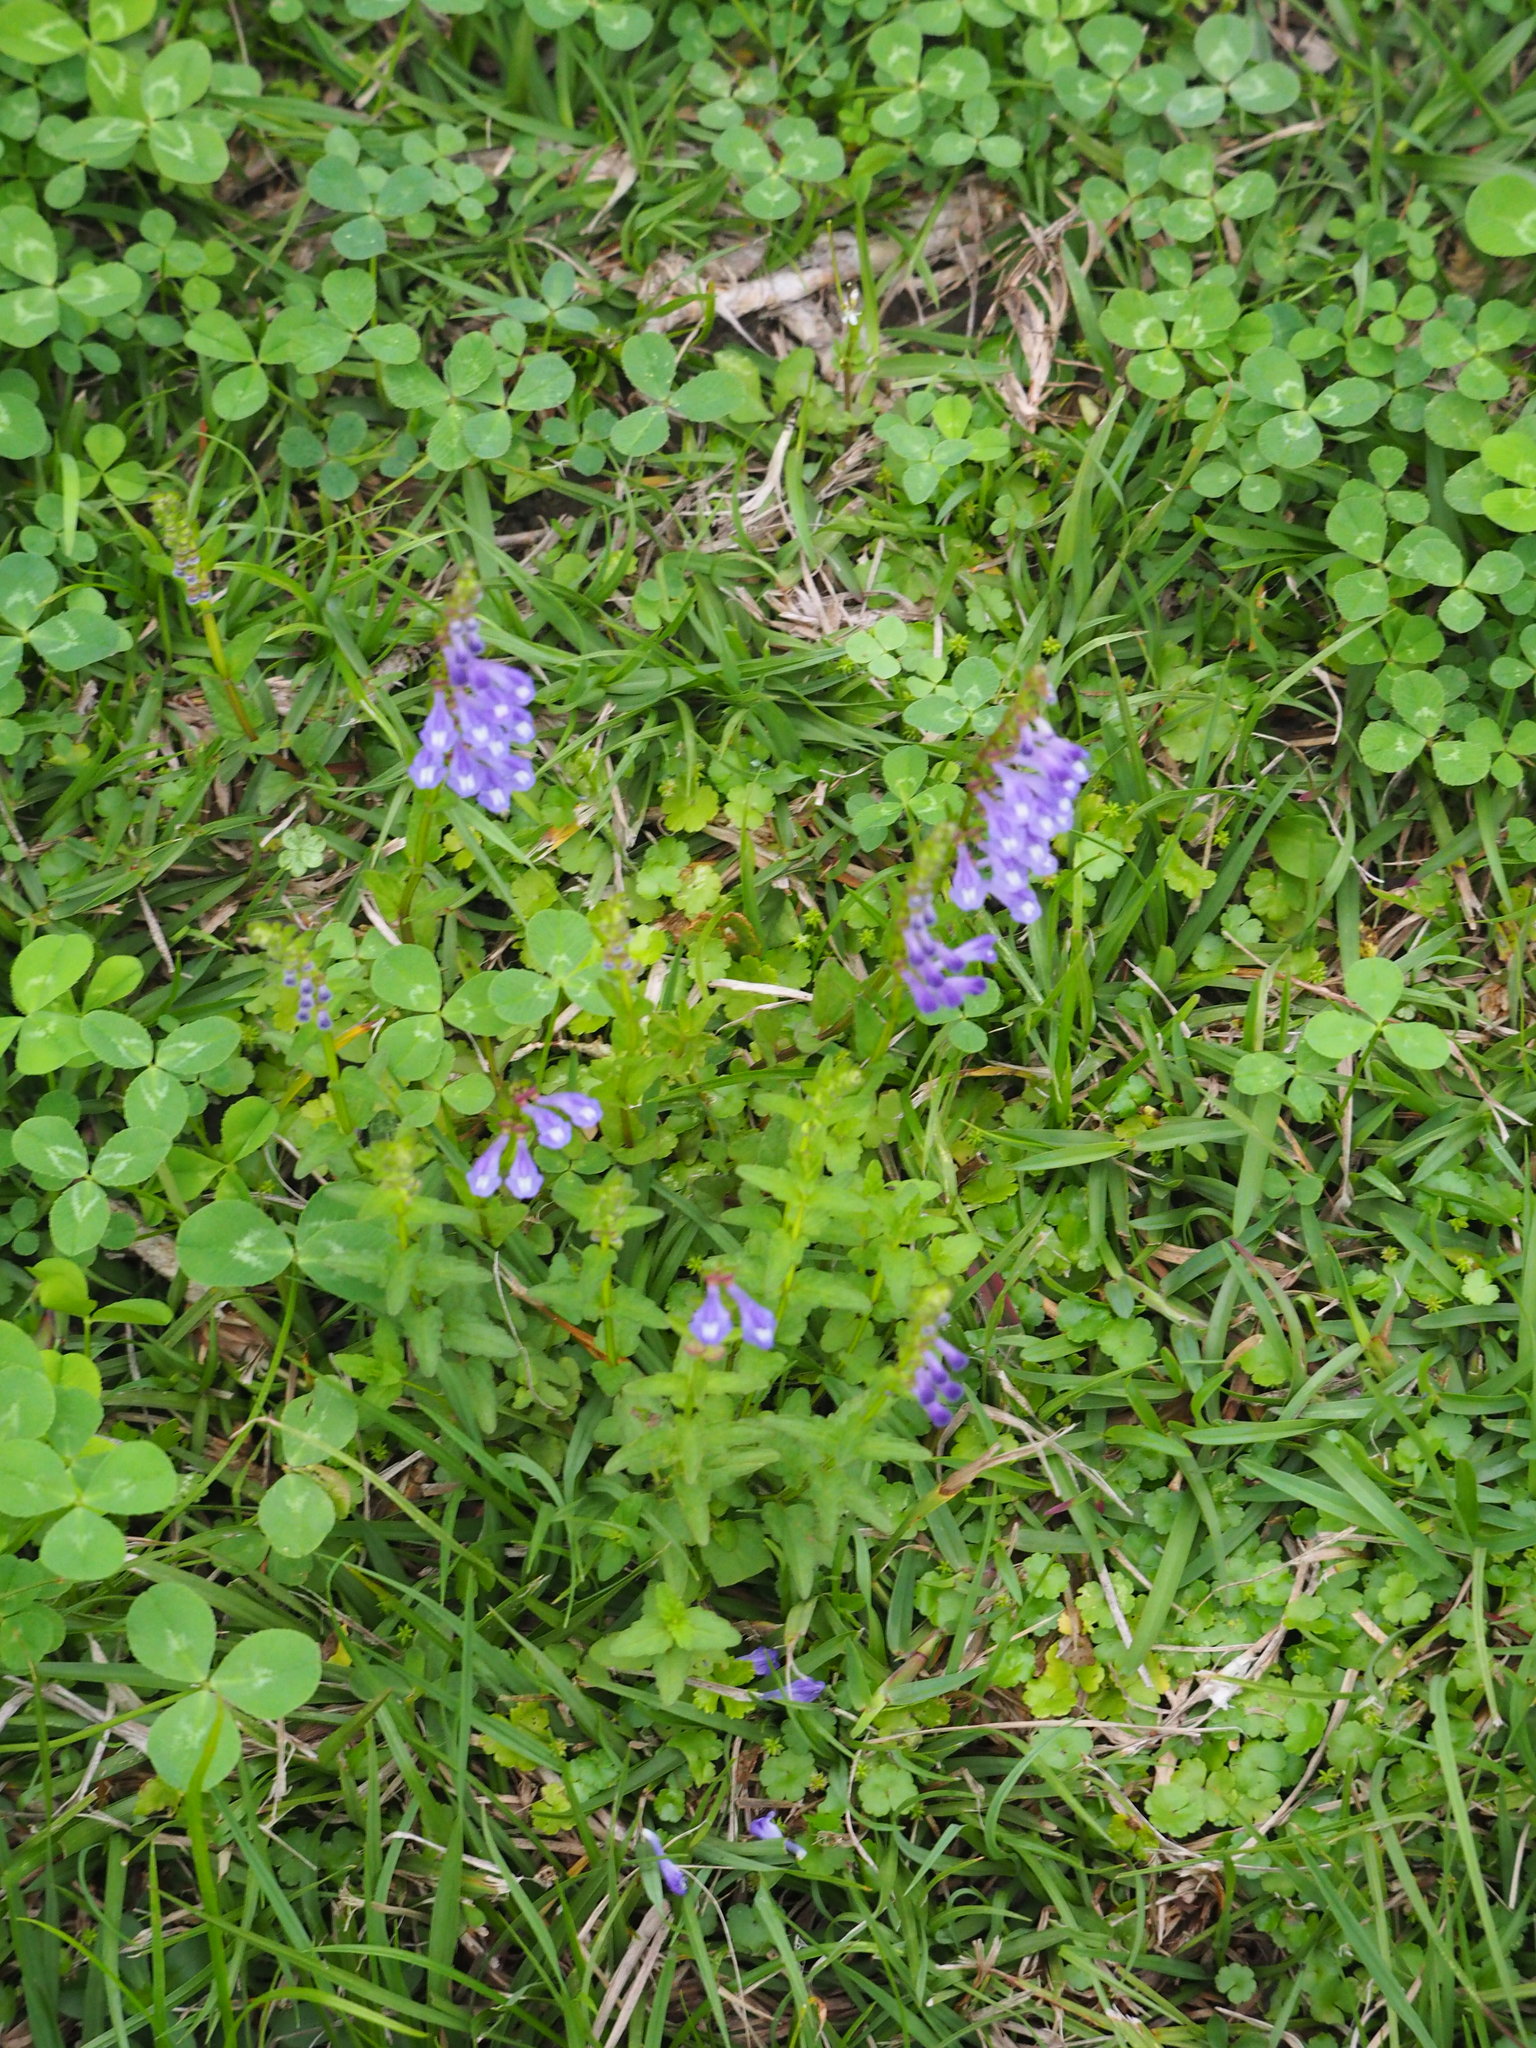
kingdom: Plantae
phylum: Tracheophyta
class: Magnoliopsida
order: Lamiales
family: Lamiaceae
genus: Scutellaria
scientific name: Scutellaria barbata
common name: Barbed skullcap
